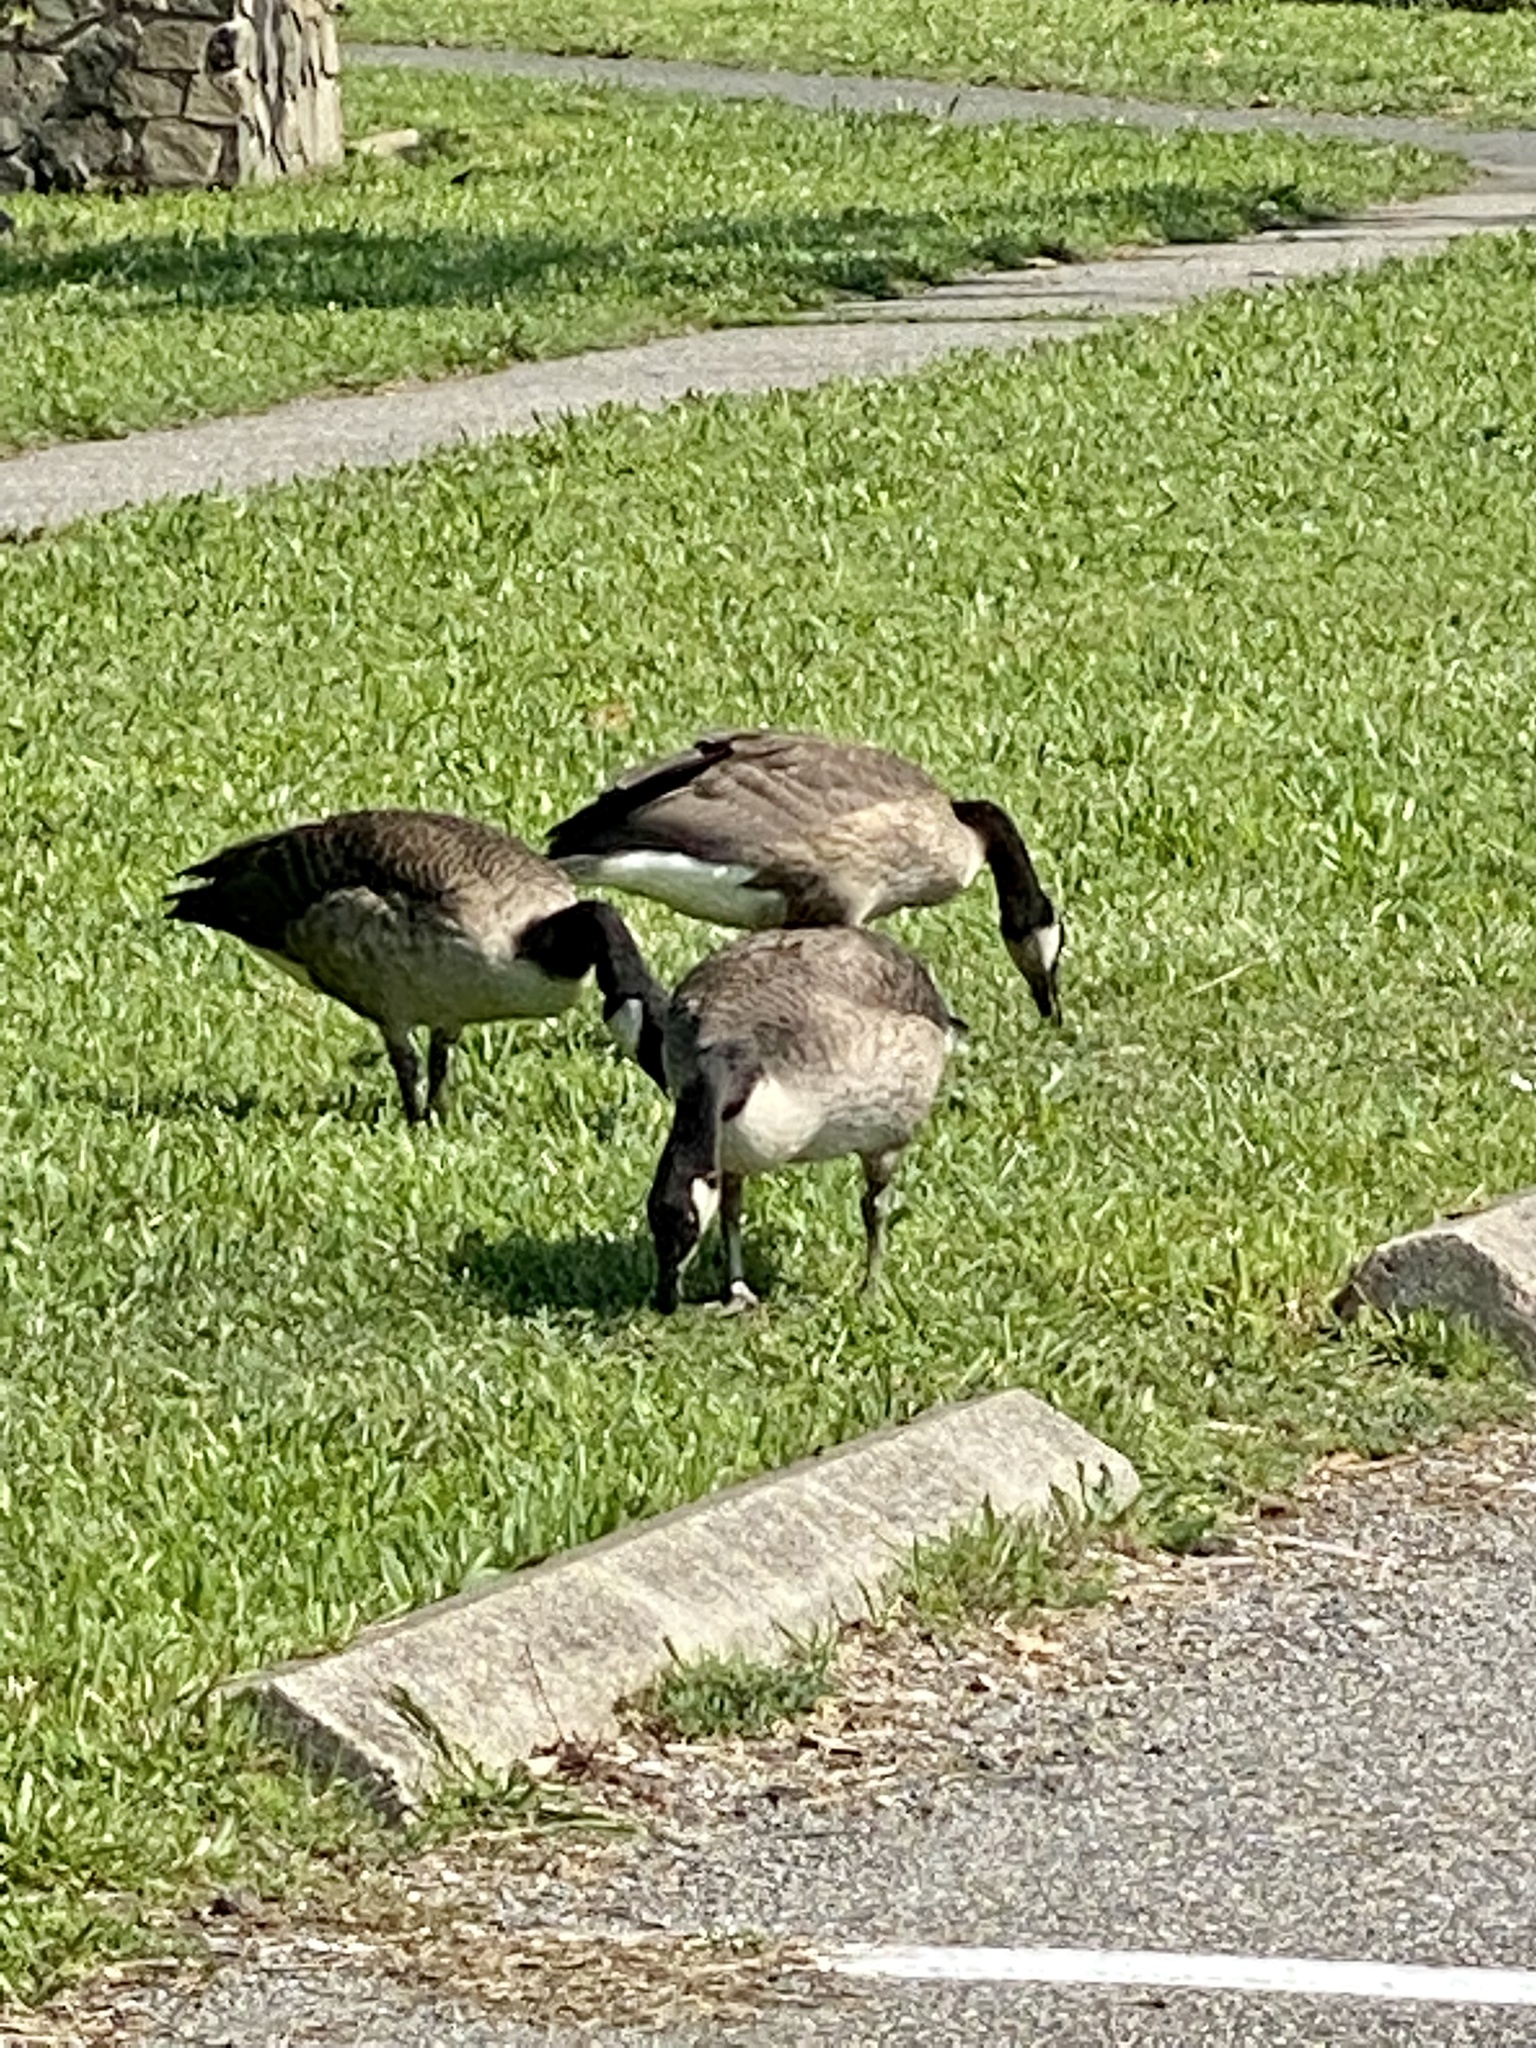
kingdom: Animalia
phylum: Chordata
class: Aves
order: Anseriformes
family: Anatidae
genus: Branta
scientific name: Branta canadensis
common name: Canada goose
